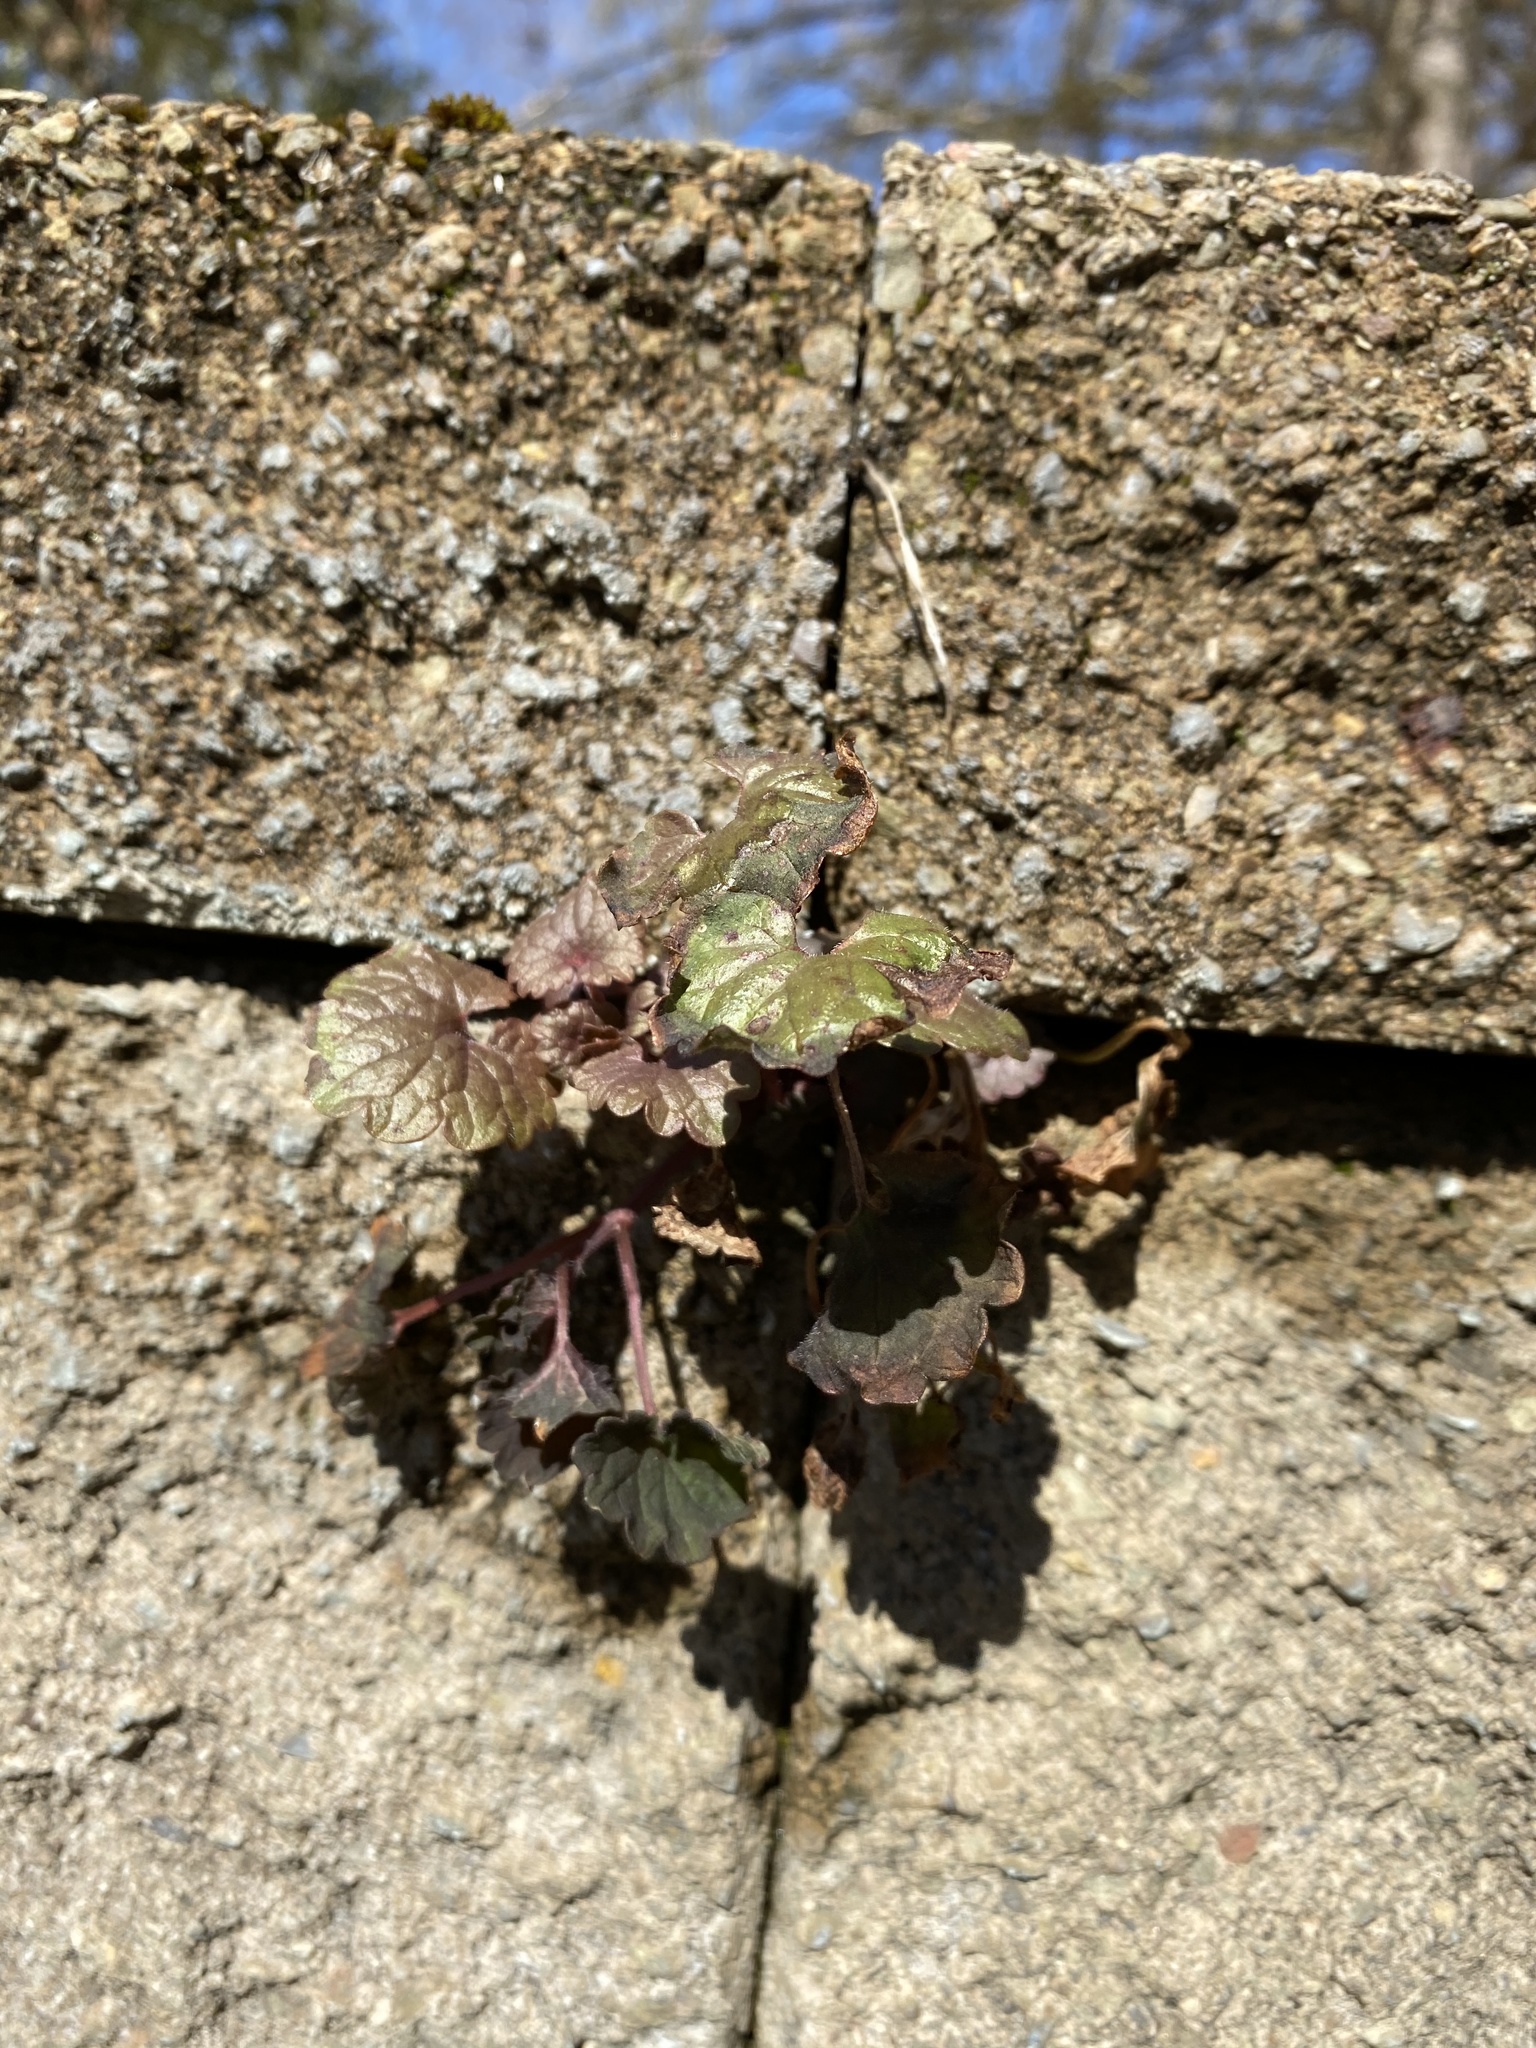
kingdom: Plantae
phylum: Tracheophyta
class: Magnoliopsida
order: Lamiales
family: Lamiaceae
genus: Glechoma
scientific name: Glechoma hederacea
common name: Ground ivy
